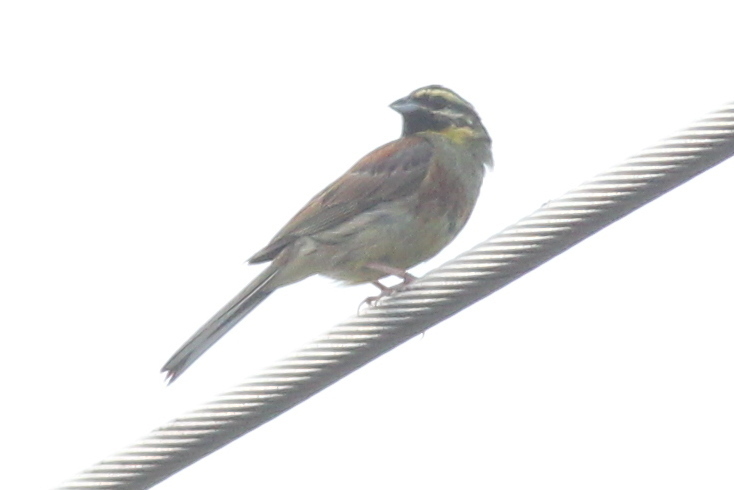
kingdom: Animalia
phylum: Chordata
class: Aves
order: Passeriformes
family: Emberizidae
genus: Emberiza
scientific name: Emberiza cirlus
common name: Cirl bunting
